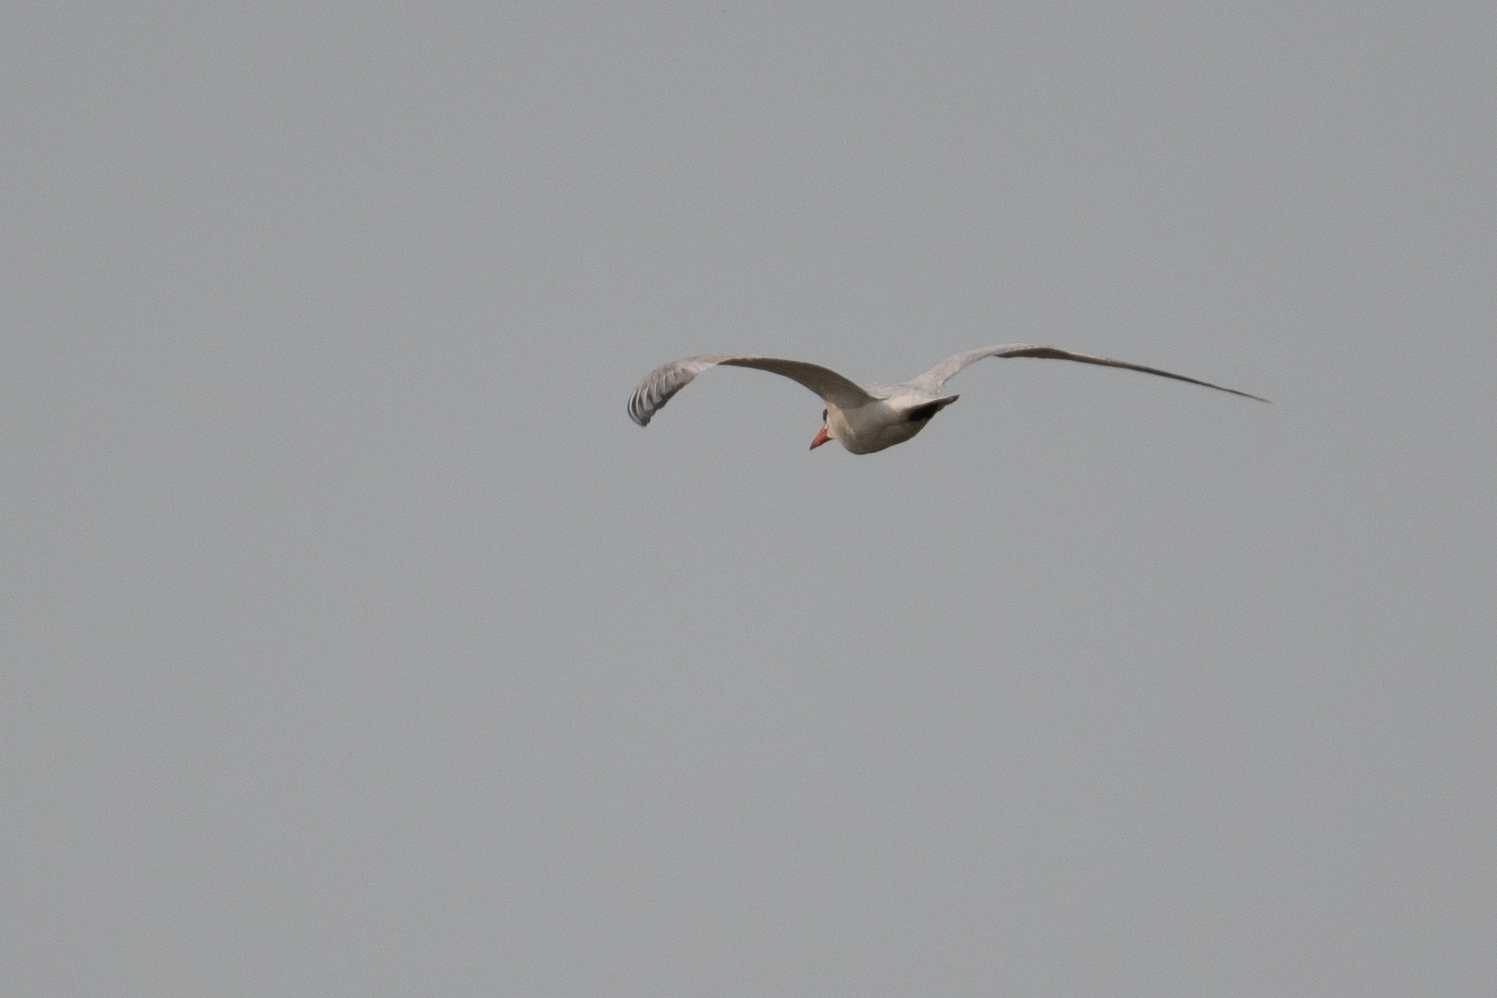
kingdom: Animalia
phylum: Chordata
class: Aves
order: Charadriiformes
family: Laridae
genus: Hydroprogne
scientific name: Hydroprogne caspia
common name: Caspian tern
